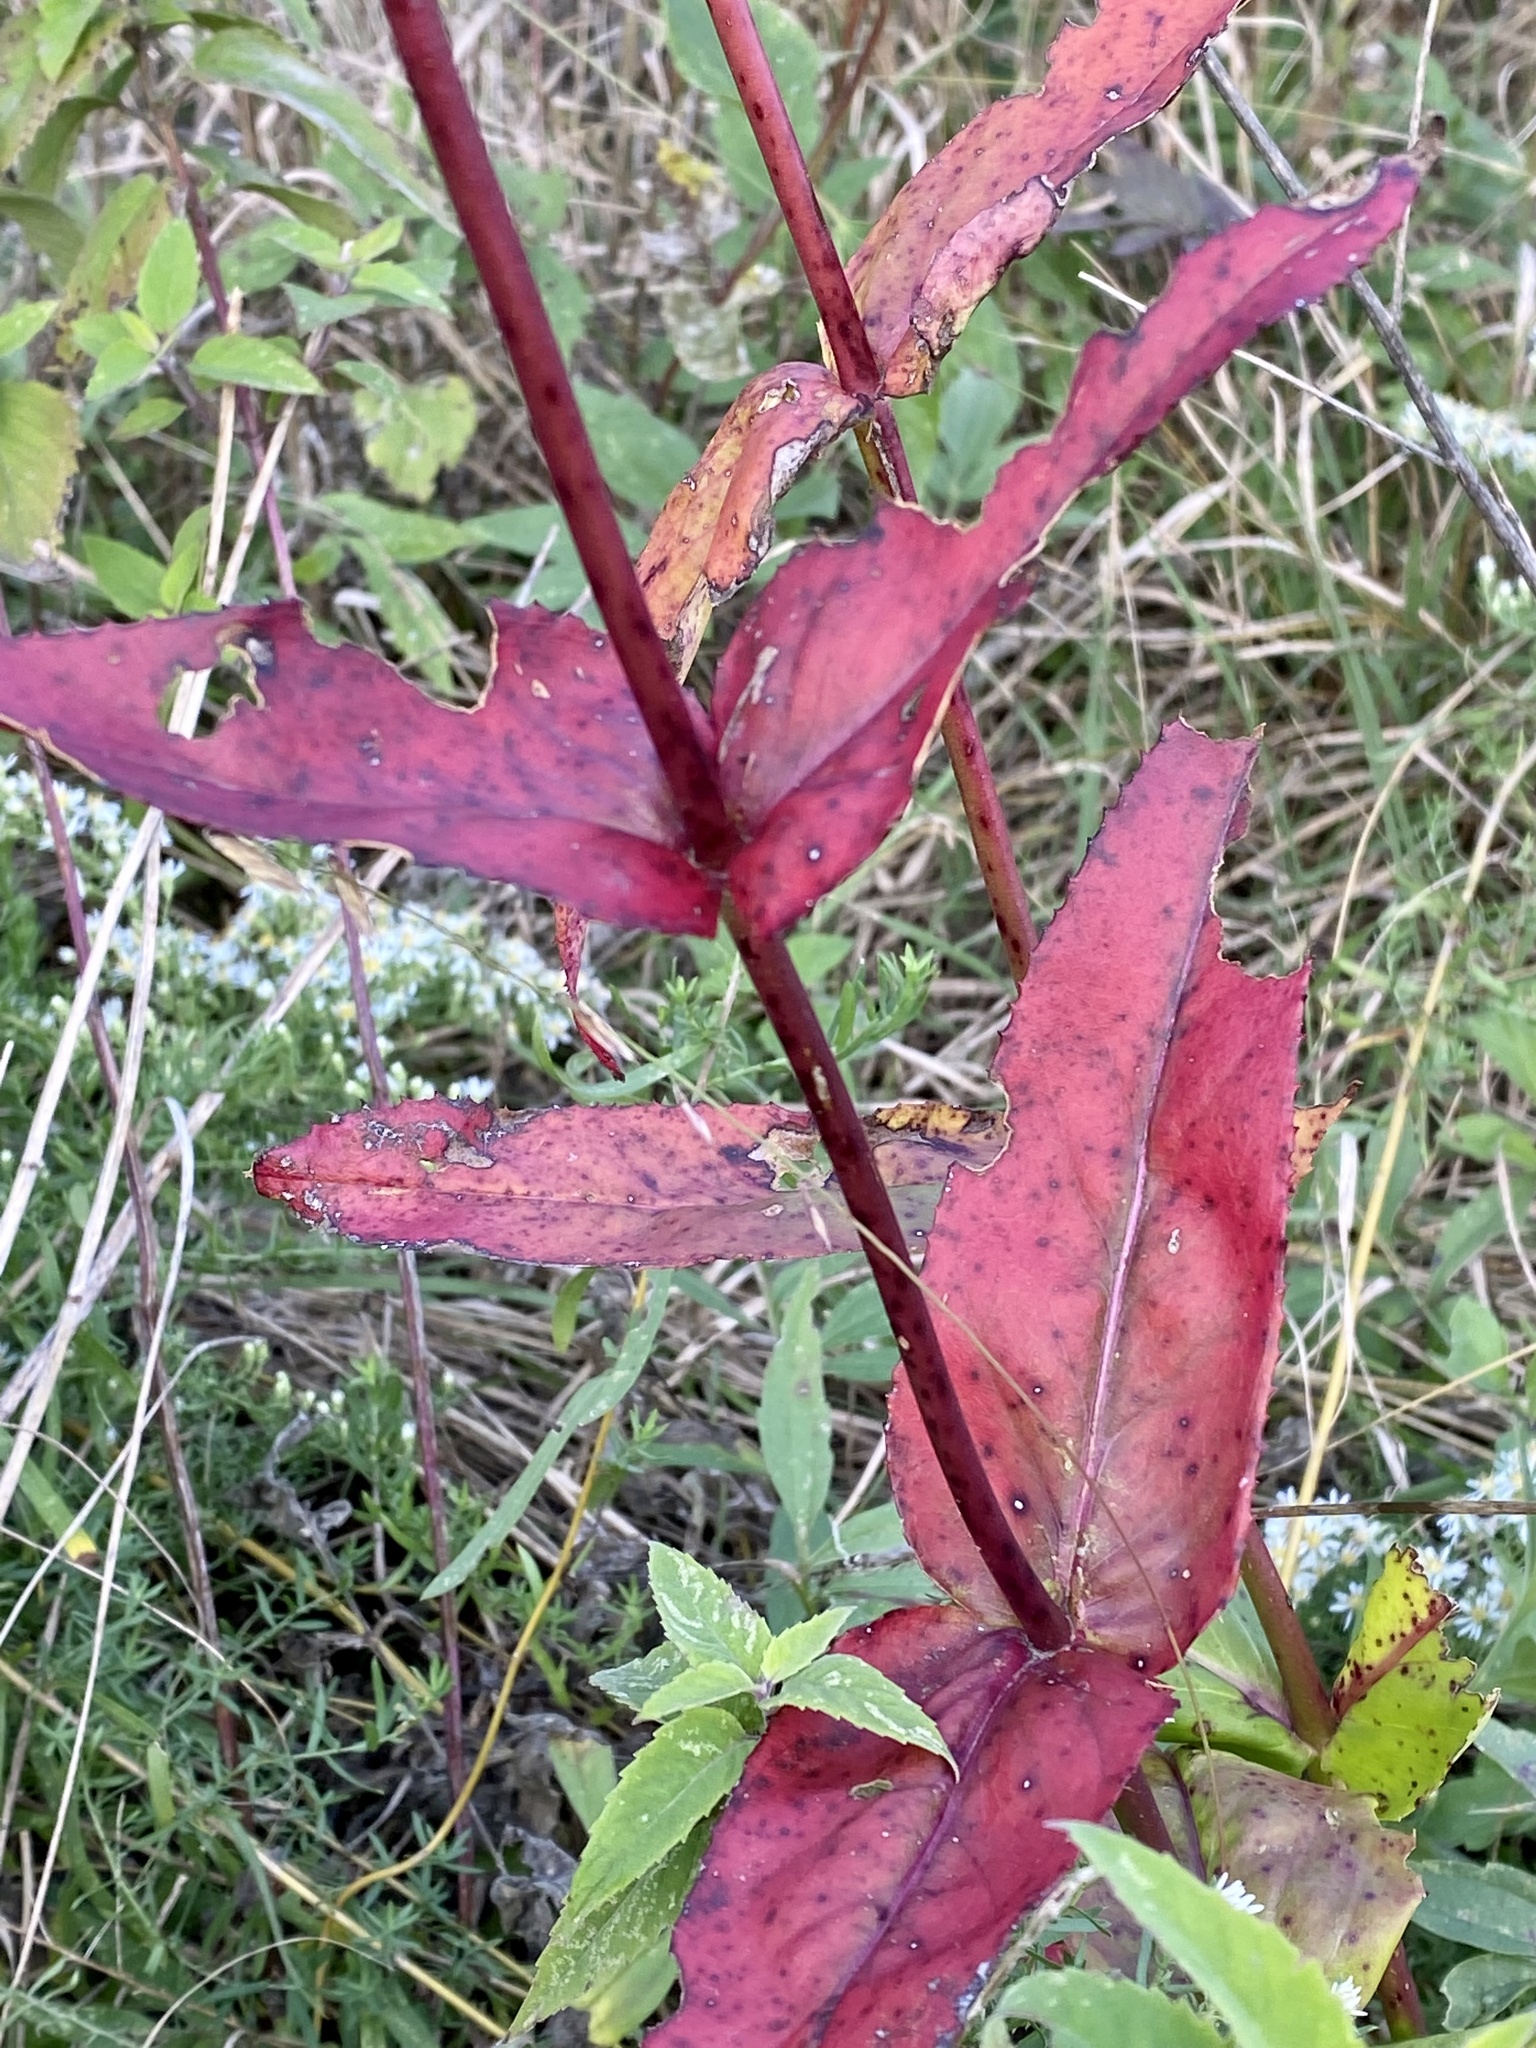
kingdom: Plantae
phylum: Tracheophyta
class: Magnoliopsida
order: Lamiales
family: Plantaginaceae
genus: Penstemon
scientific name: Penstemon digitalis
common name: Foxglove beardtongue
